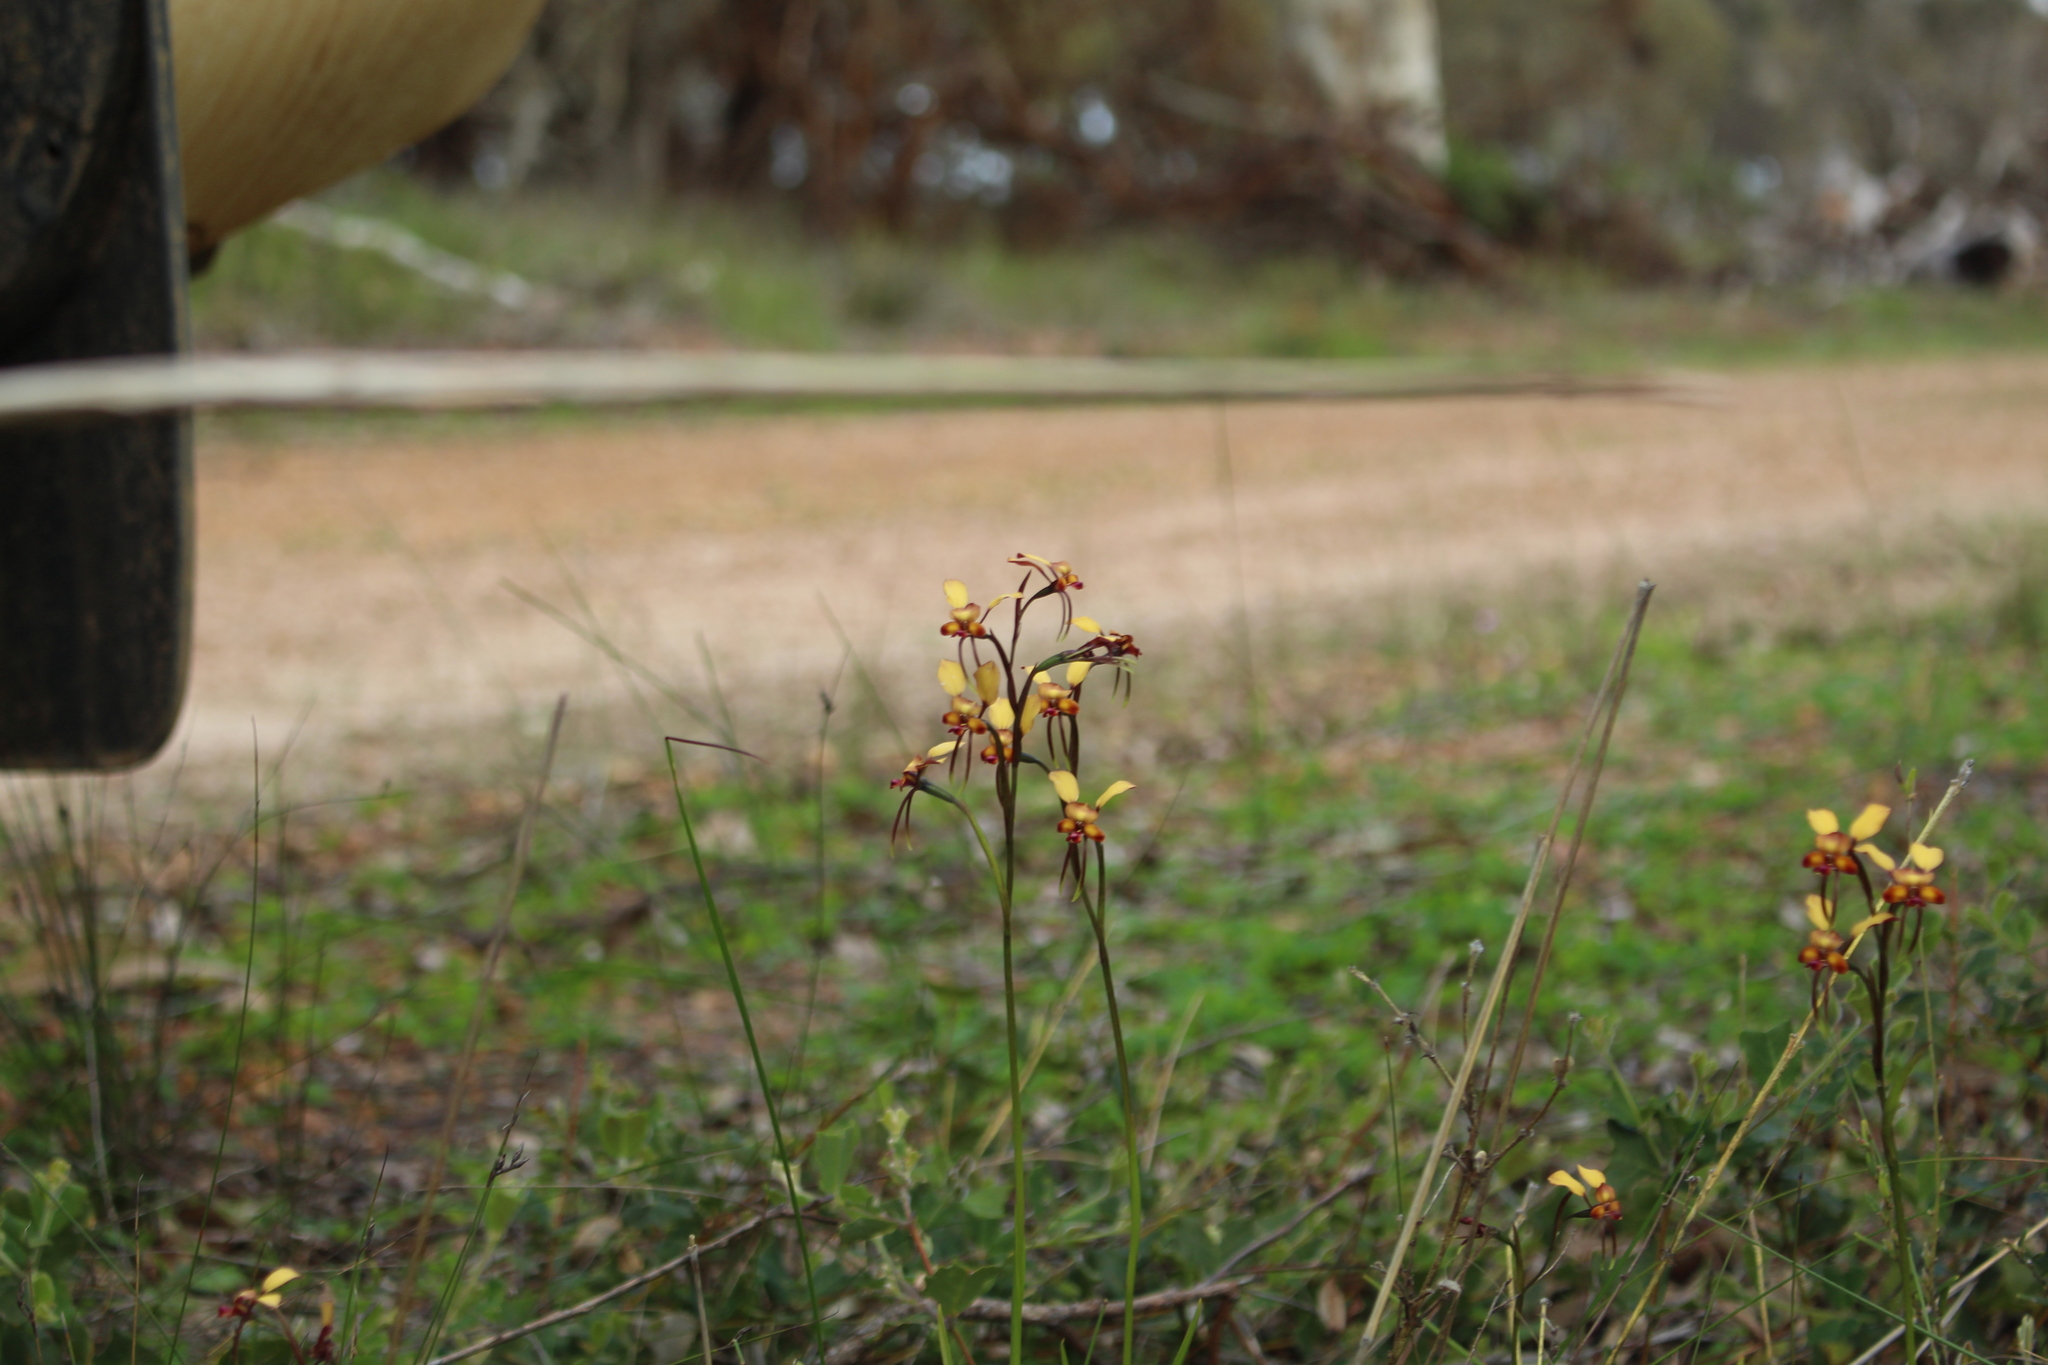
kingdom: Plantae
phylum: Tracheophyta
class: Liliopsida
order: Asparagales
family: Orchidaceae
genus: Diuris
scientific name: Diuris porrifolia
